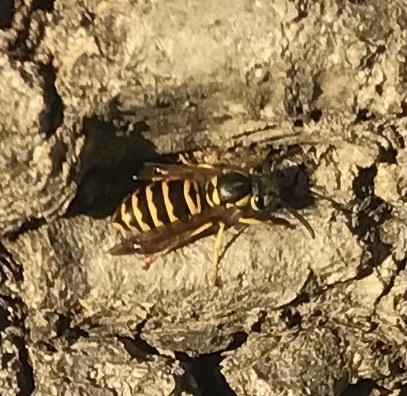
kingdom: Animalia
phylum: Arthropoda
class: Insecta
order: Hymenoptera
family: Vespidae
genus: Vespula
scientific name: Vespula maculifrons
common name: Eastern yellowjacket
